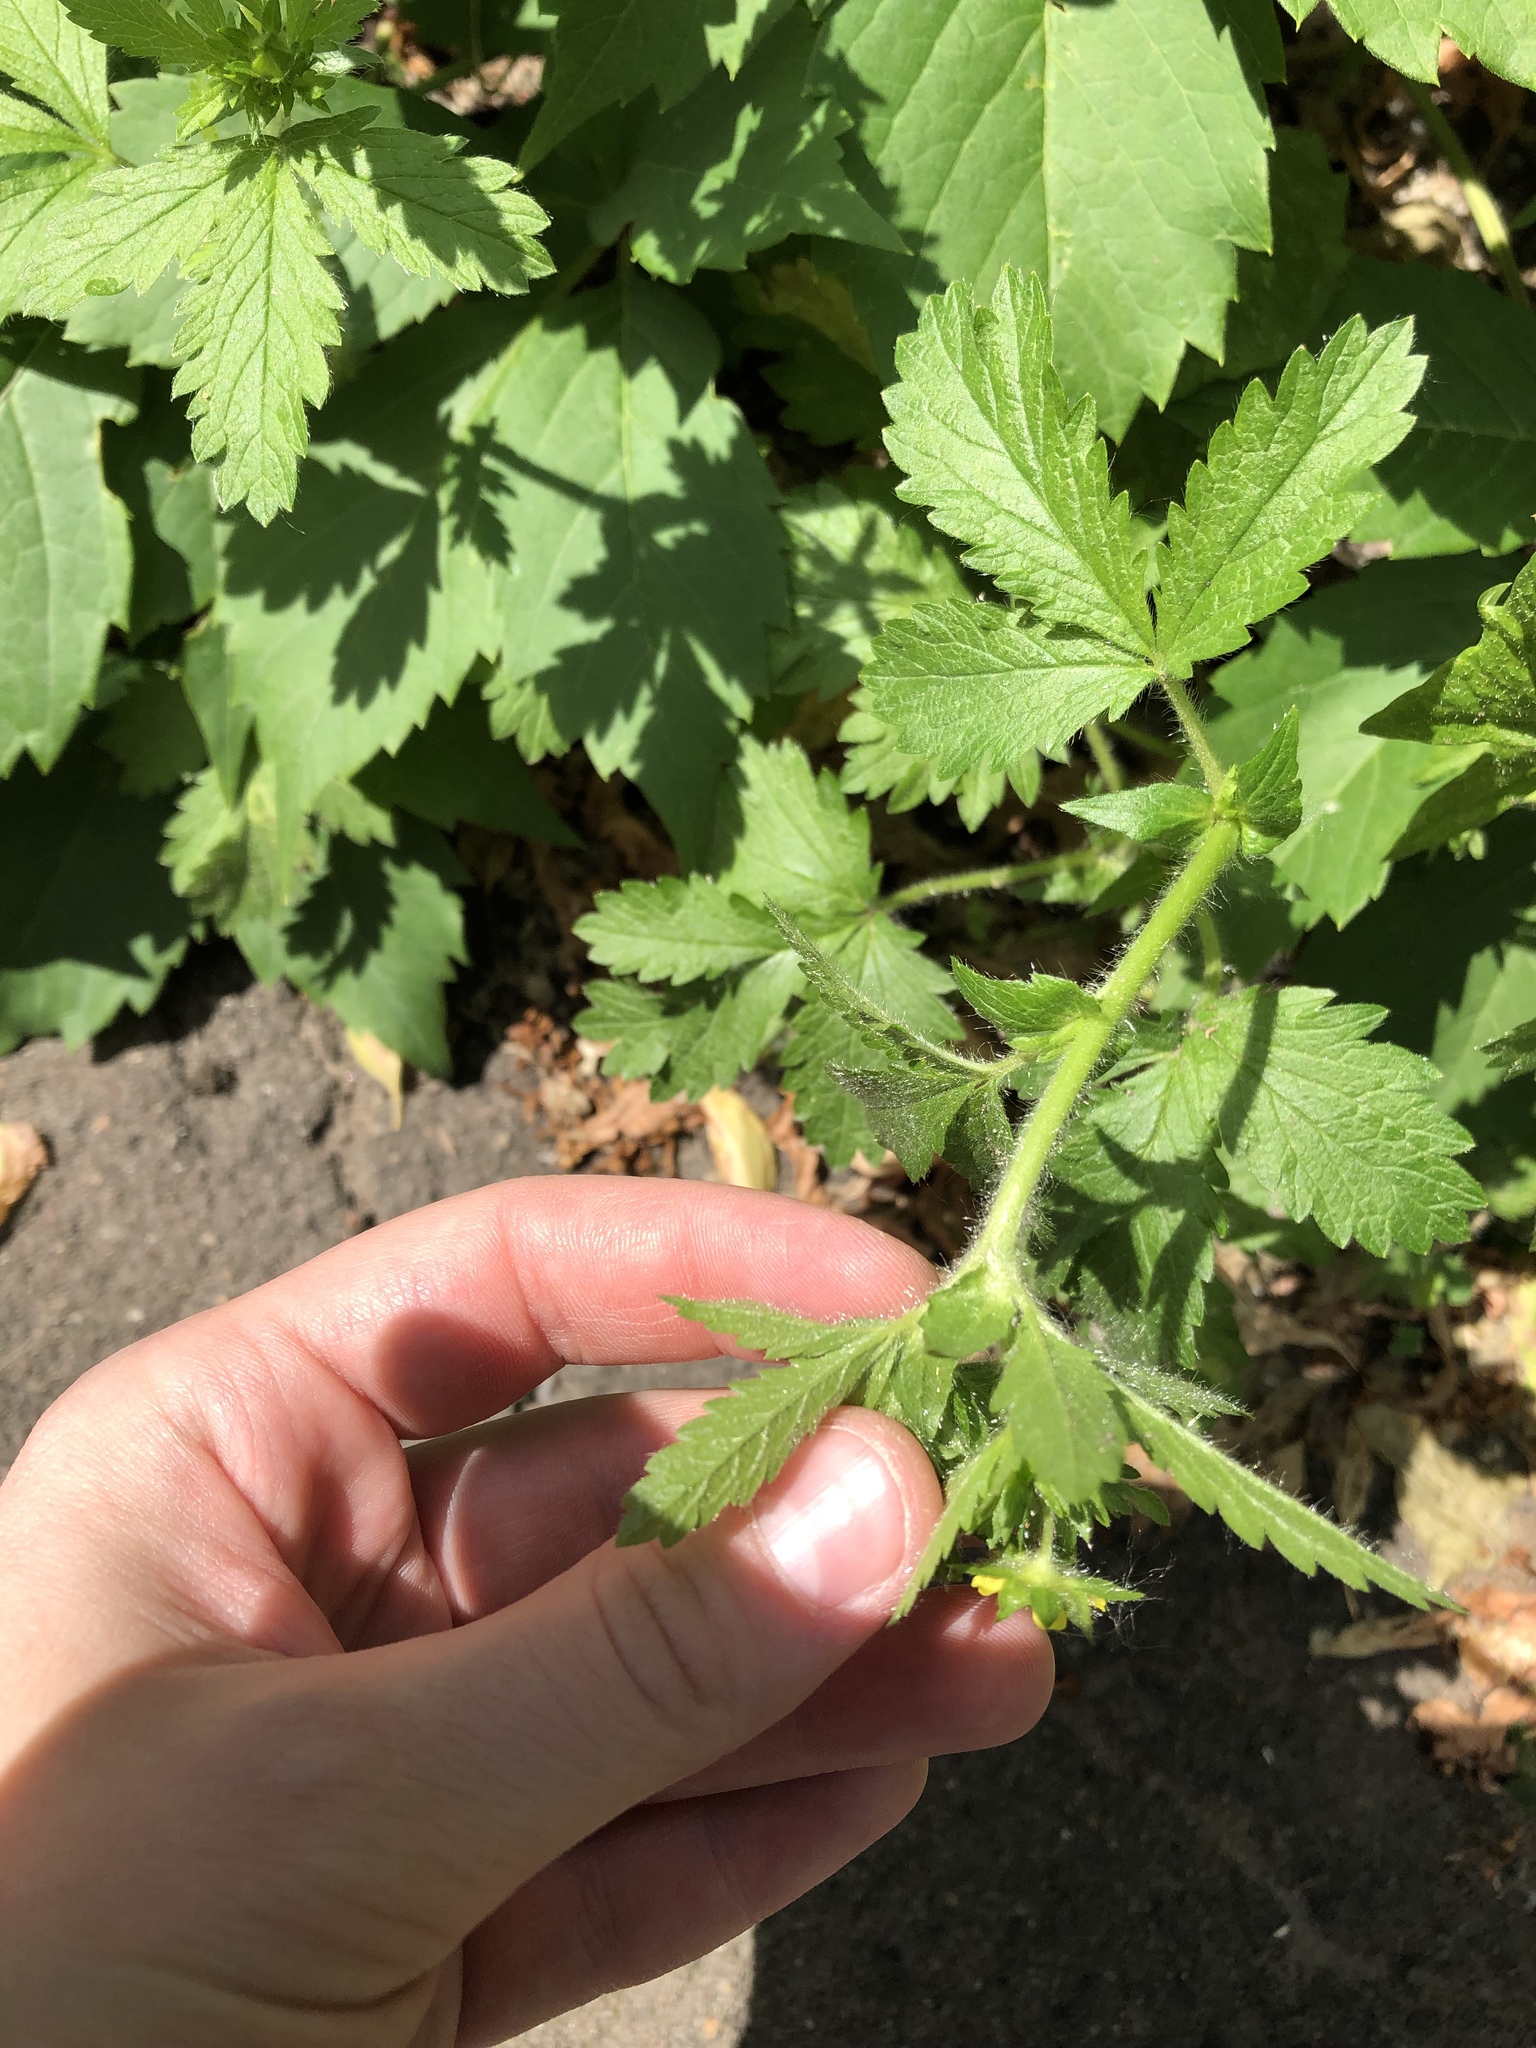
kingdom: Plantae
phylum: Tracheophyta
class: Magnoliopsida
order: Rosales
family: Rosaceae
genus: Potentilla
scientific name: Potentilla norvegica
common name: Ternate-leaved cinquefoil
